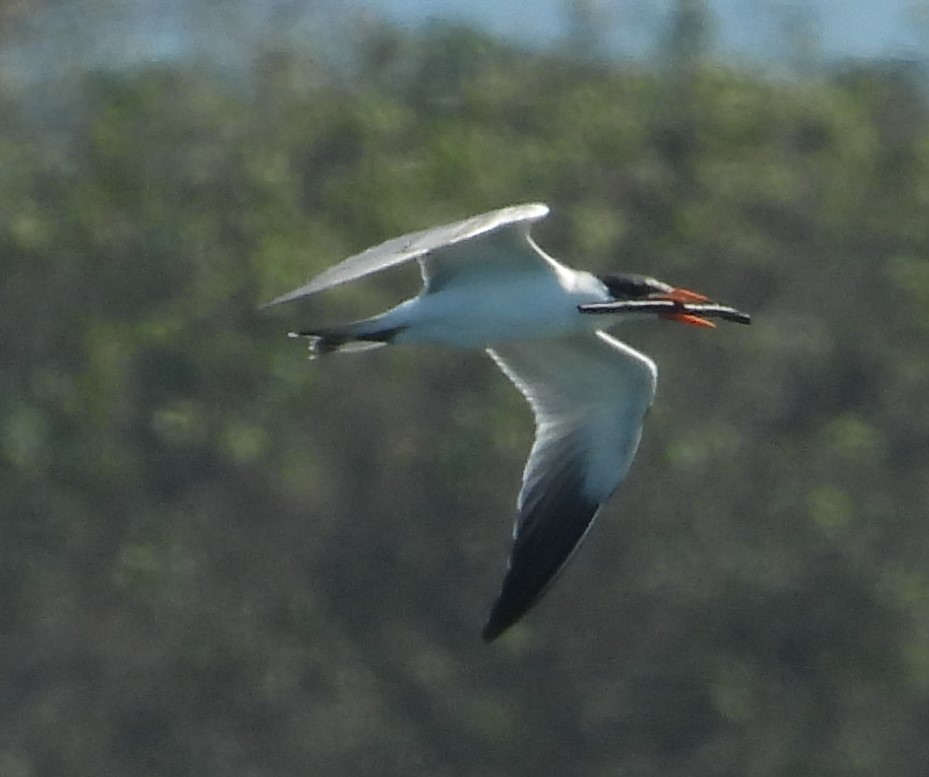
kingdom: Animalia
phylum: Chordata
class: Aves
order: Charadriiformes
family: Laridae
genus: Hydroprogne
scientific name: Hydroprogne caspia
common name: Caspian tern
